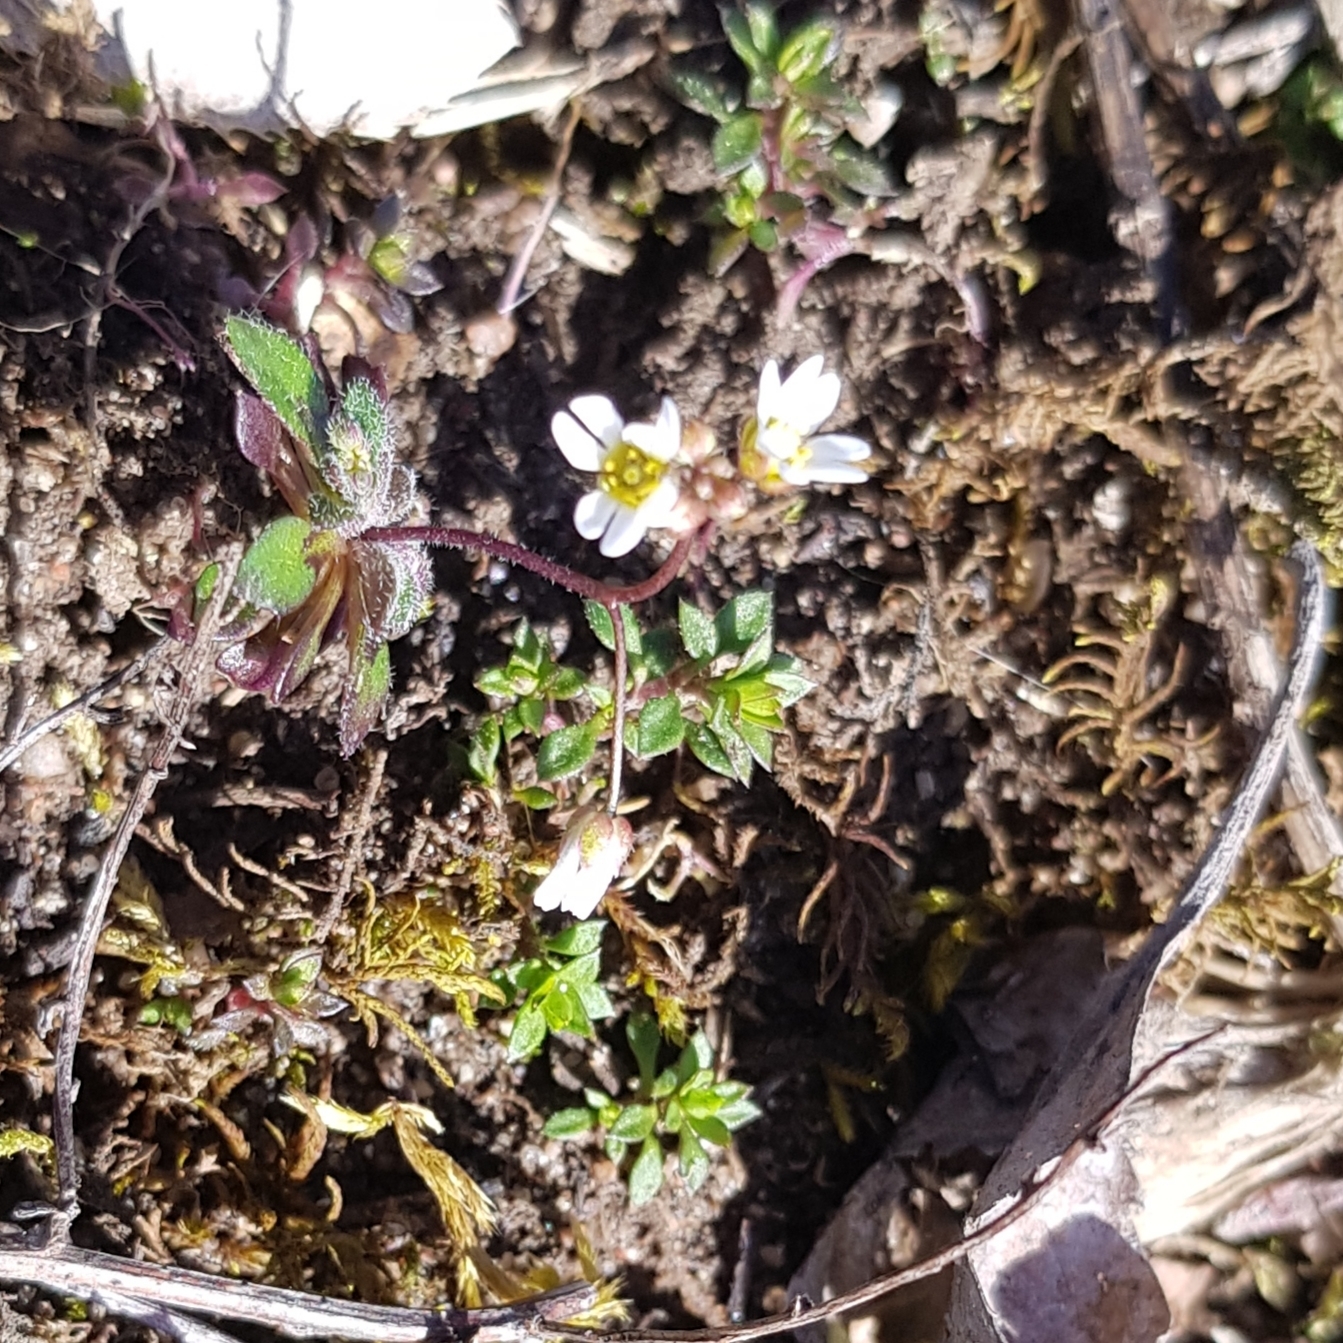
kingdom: Plantae
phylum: Tracheophyta
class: Magnoliopsida
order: Brassicales
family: Brassicaceae
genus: Draba
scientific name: Draba verna
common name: Spring draba
